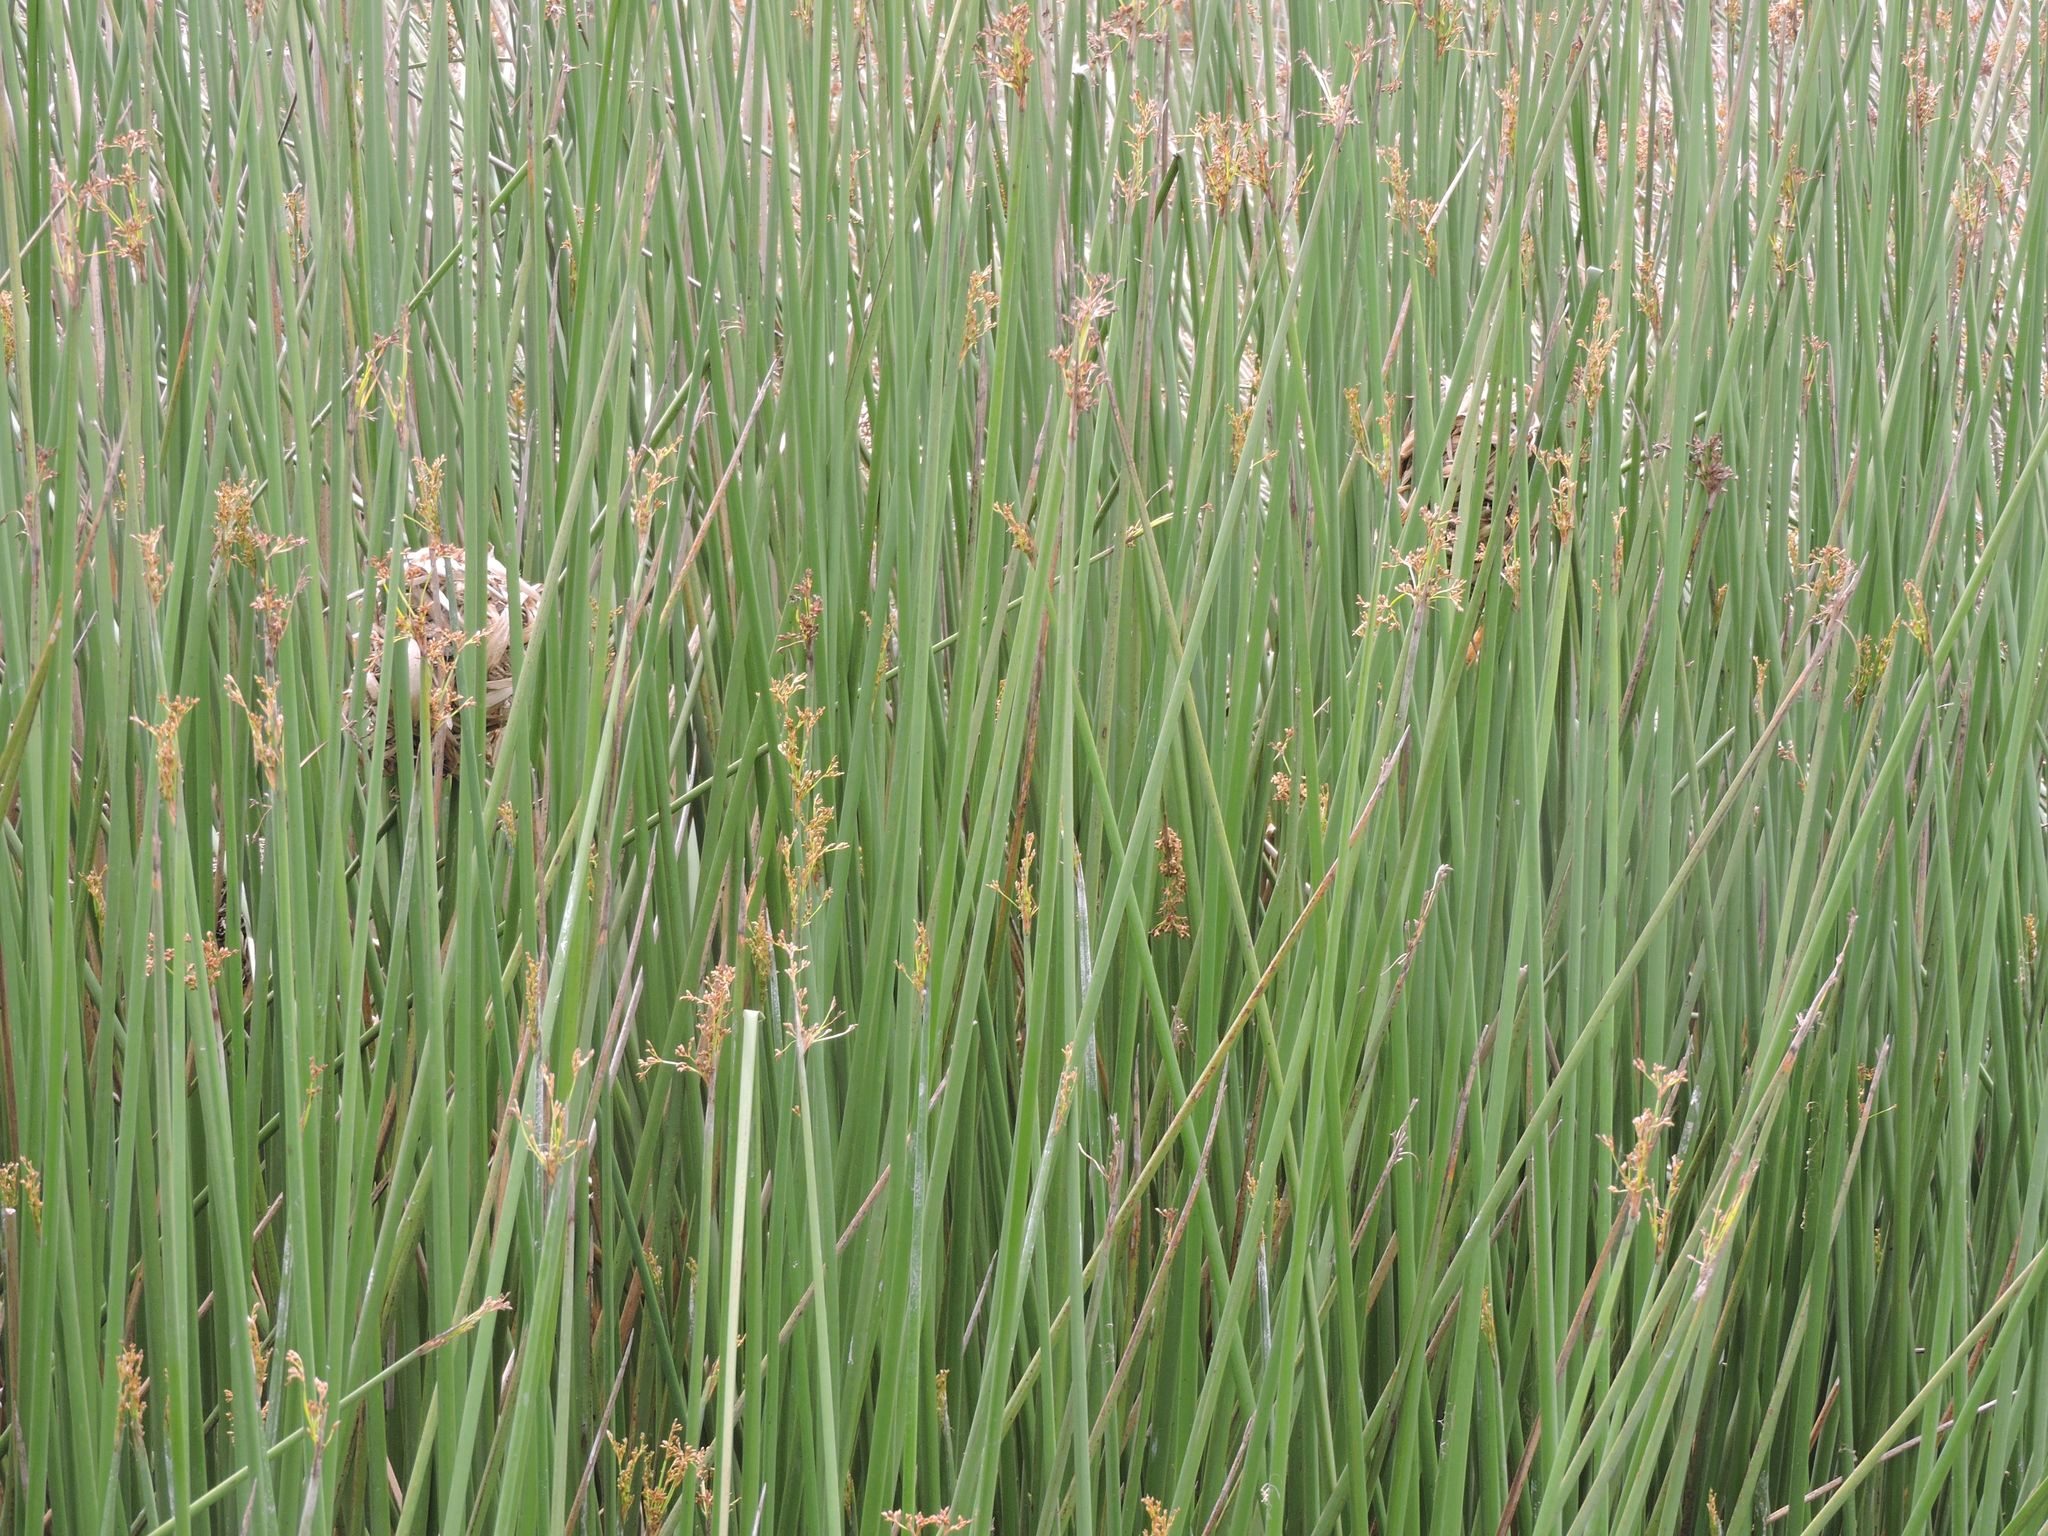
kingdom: Animalia
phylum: Chordata
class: Aves
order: Passeriformes
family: Troglodytidae
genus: Cistothorus
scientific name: Cistothorus palustris
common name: Marsh wren
